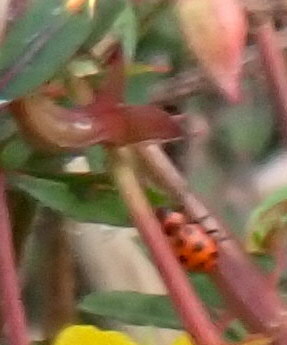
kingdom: Animalia
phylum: Arthropoda
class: Insecta
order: Coleoptera
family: Coccinellidae
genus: Coleomegilla
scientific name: Coleomegilla maculata
